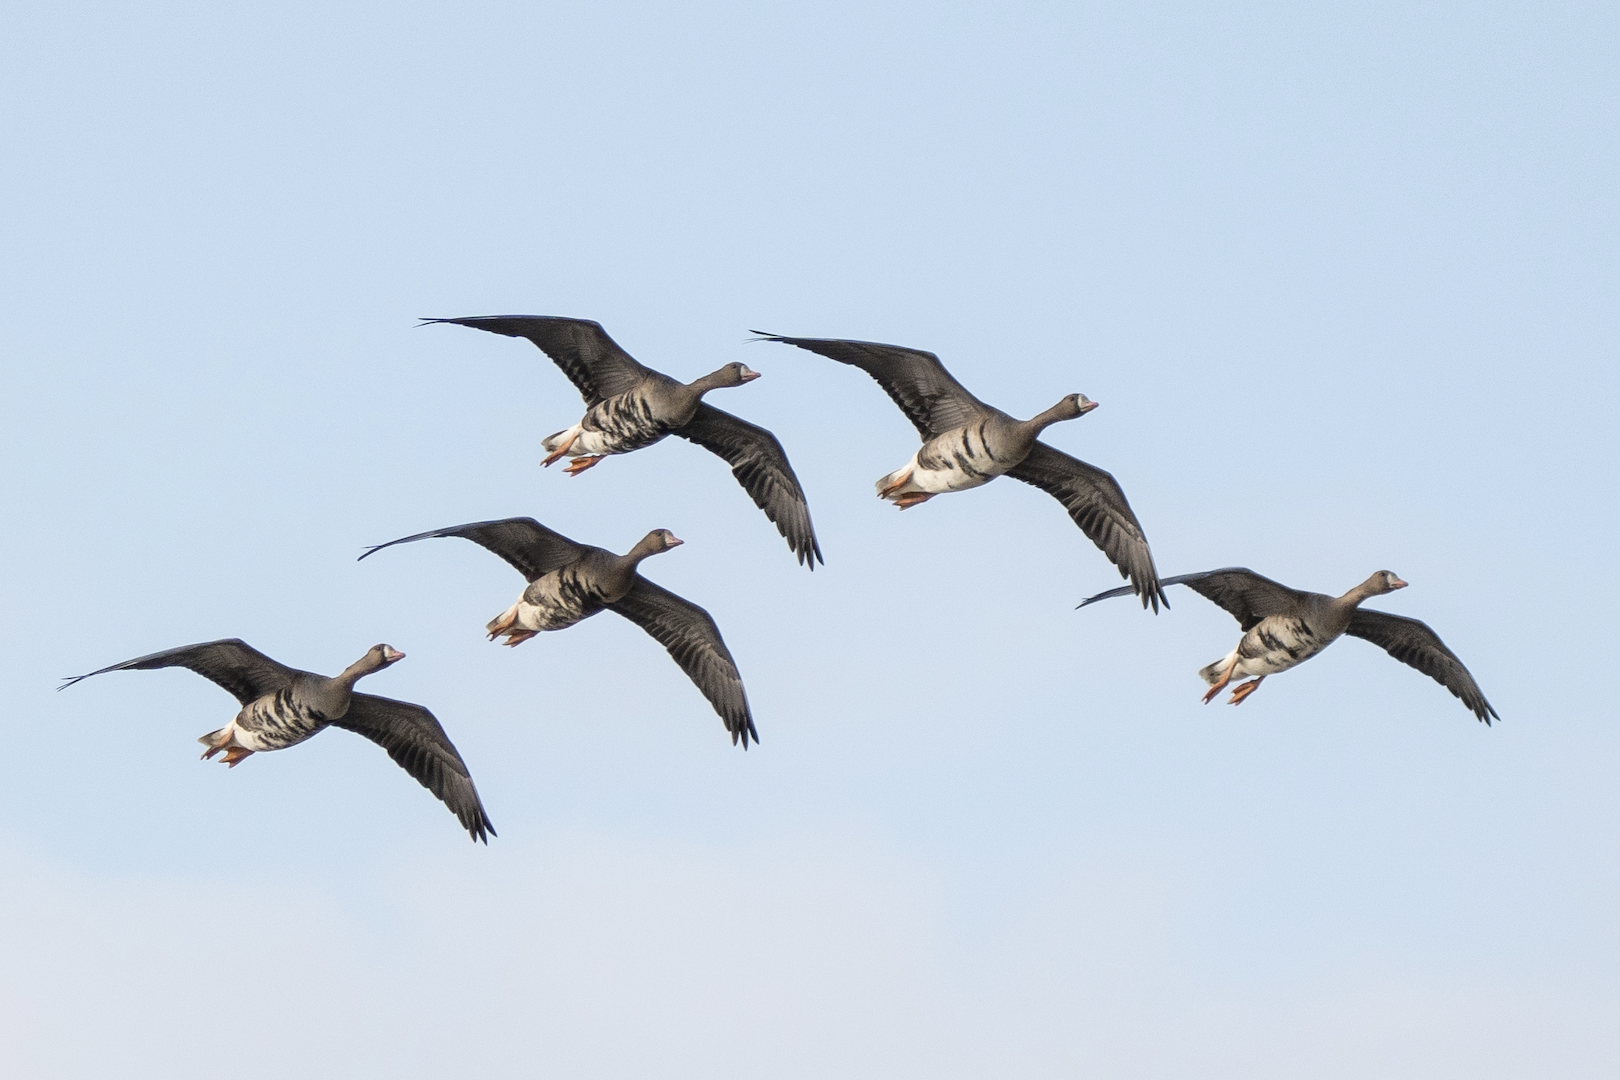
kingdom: Animalia
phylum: Chordata
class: Aves
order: Anseriformes
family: Anatidae
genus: Anser
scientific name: Anser albifrons
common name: Greater white-fronted goose
